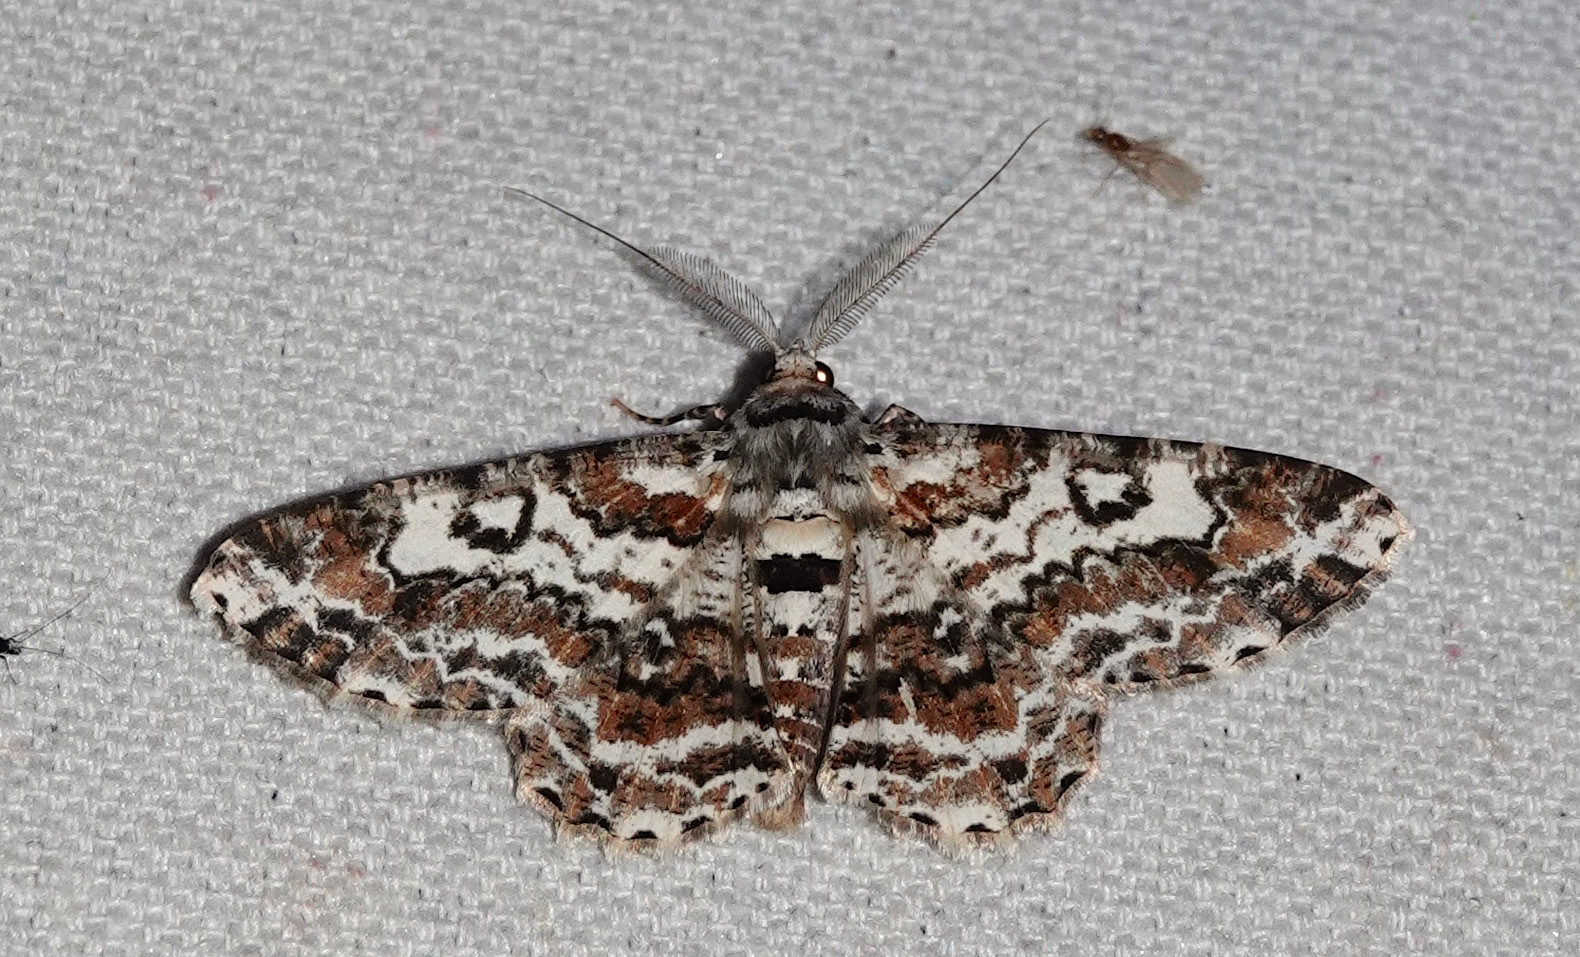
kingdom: Animalia
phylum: Arthropoda
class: Insecta
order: Lepidoptera
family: Geometridae
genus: Cleora
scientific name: Cleora determinata
